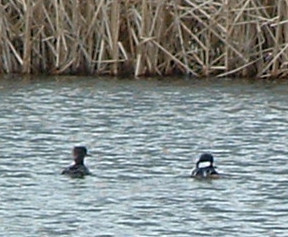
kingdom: Animalia
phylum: Chordata
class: Aves
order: Anseriformes
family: Anatidae
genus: Lophodytes
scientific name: Lophodytes cucullatus
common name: Hooded merganser
